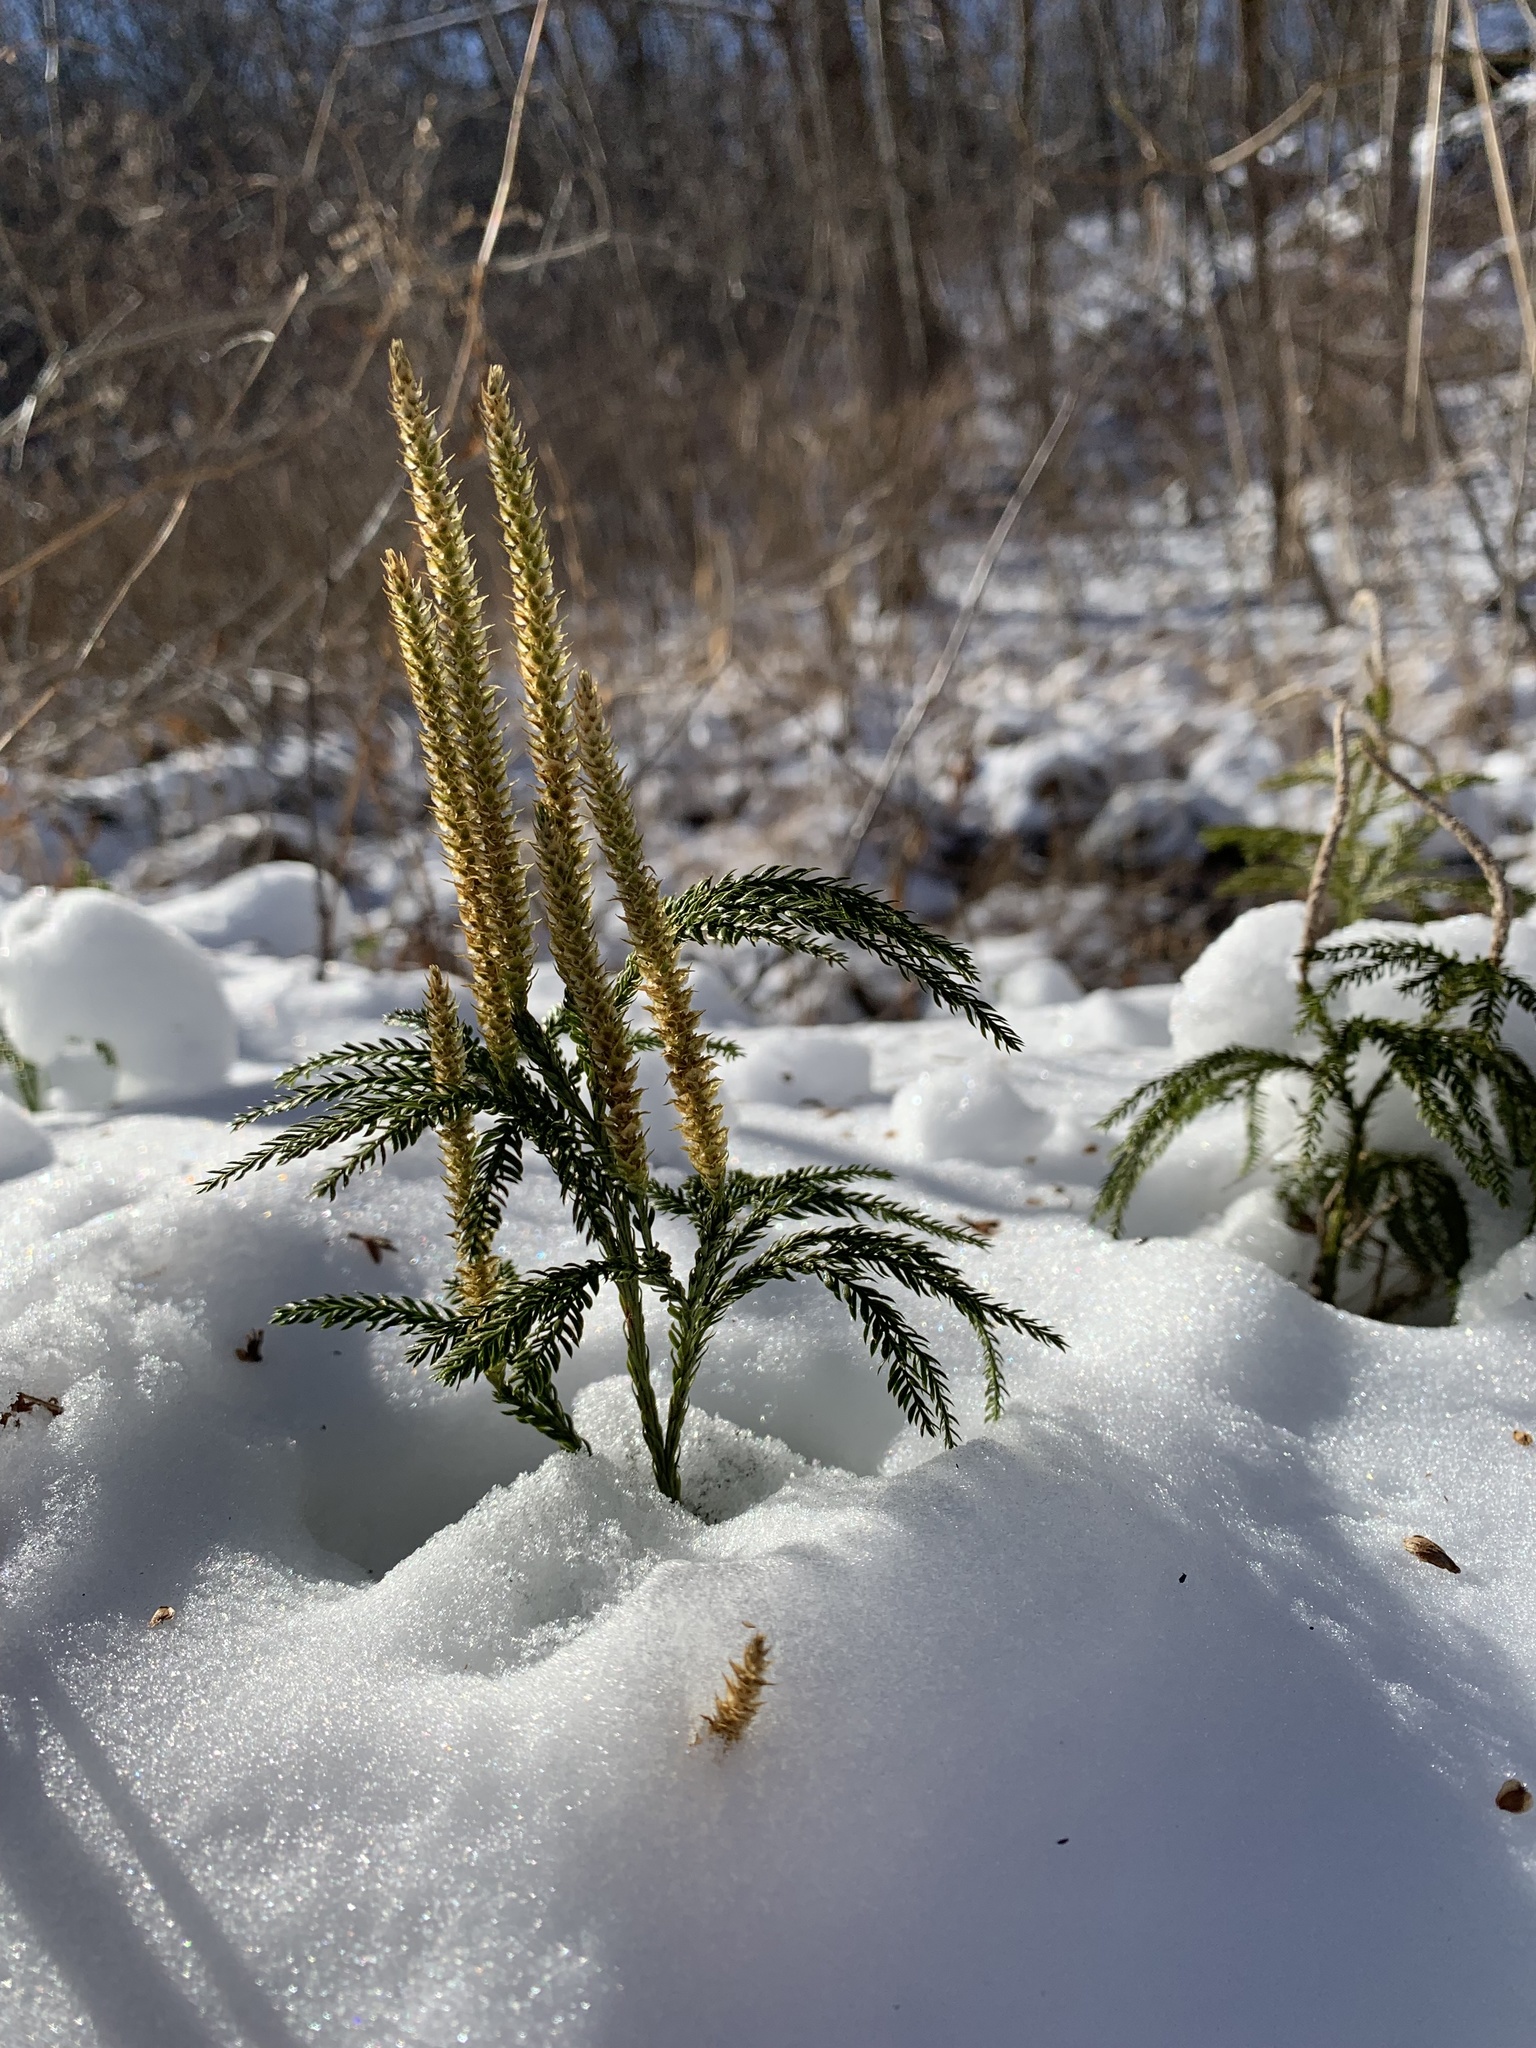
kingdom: Plantae
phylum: Tracheophyta
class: Lycopodiopsida
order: Lycopodiales
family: Lycopodiaceae
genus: Dendrolycopodium
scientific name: Dendrolycopodium obscurum
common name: Common ground-pine
